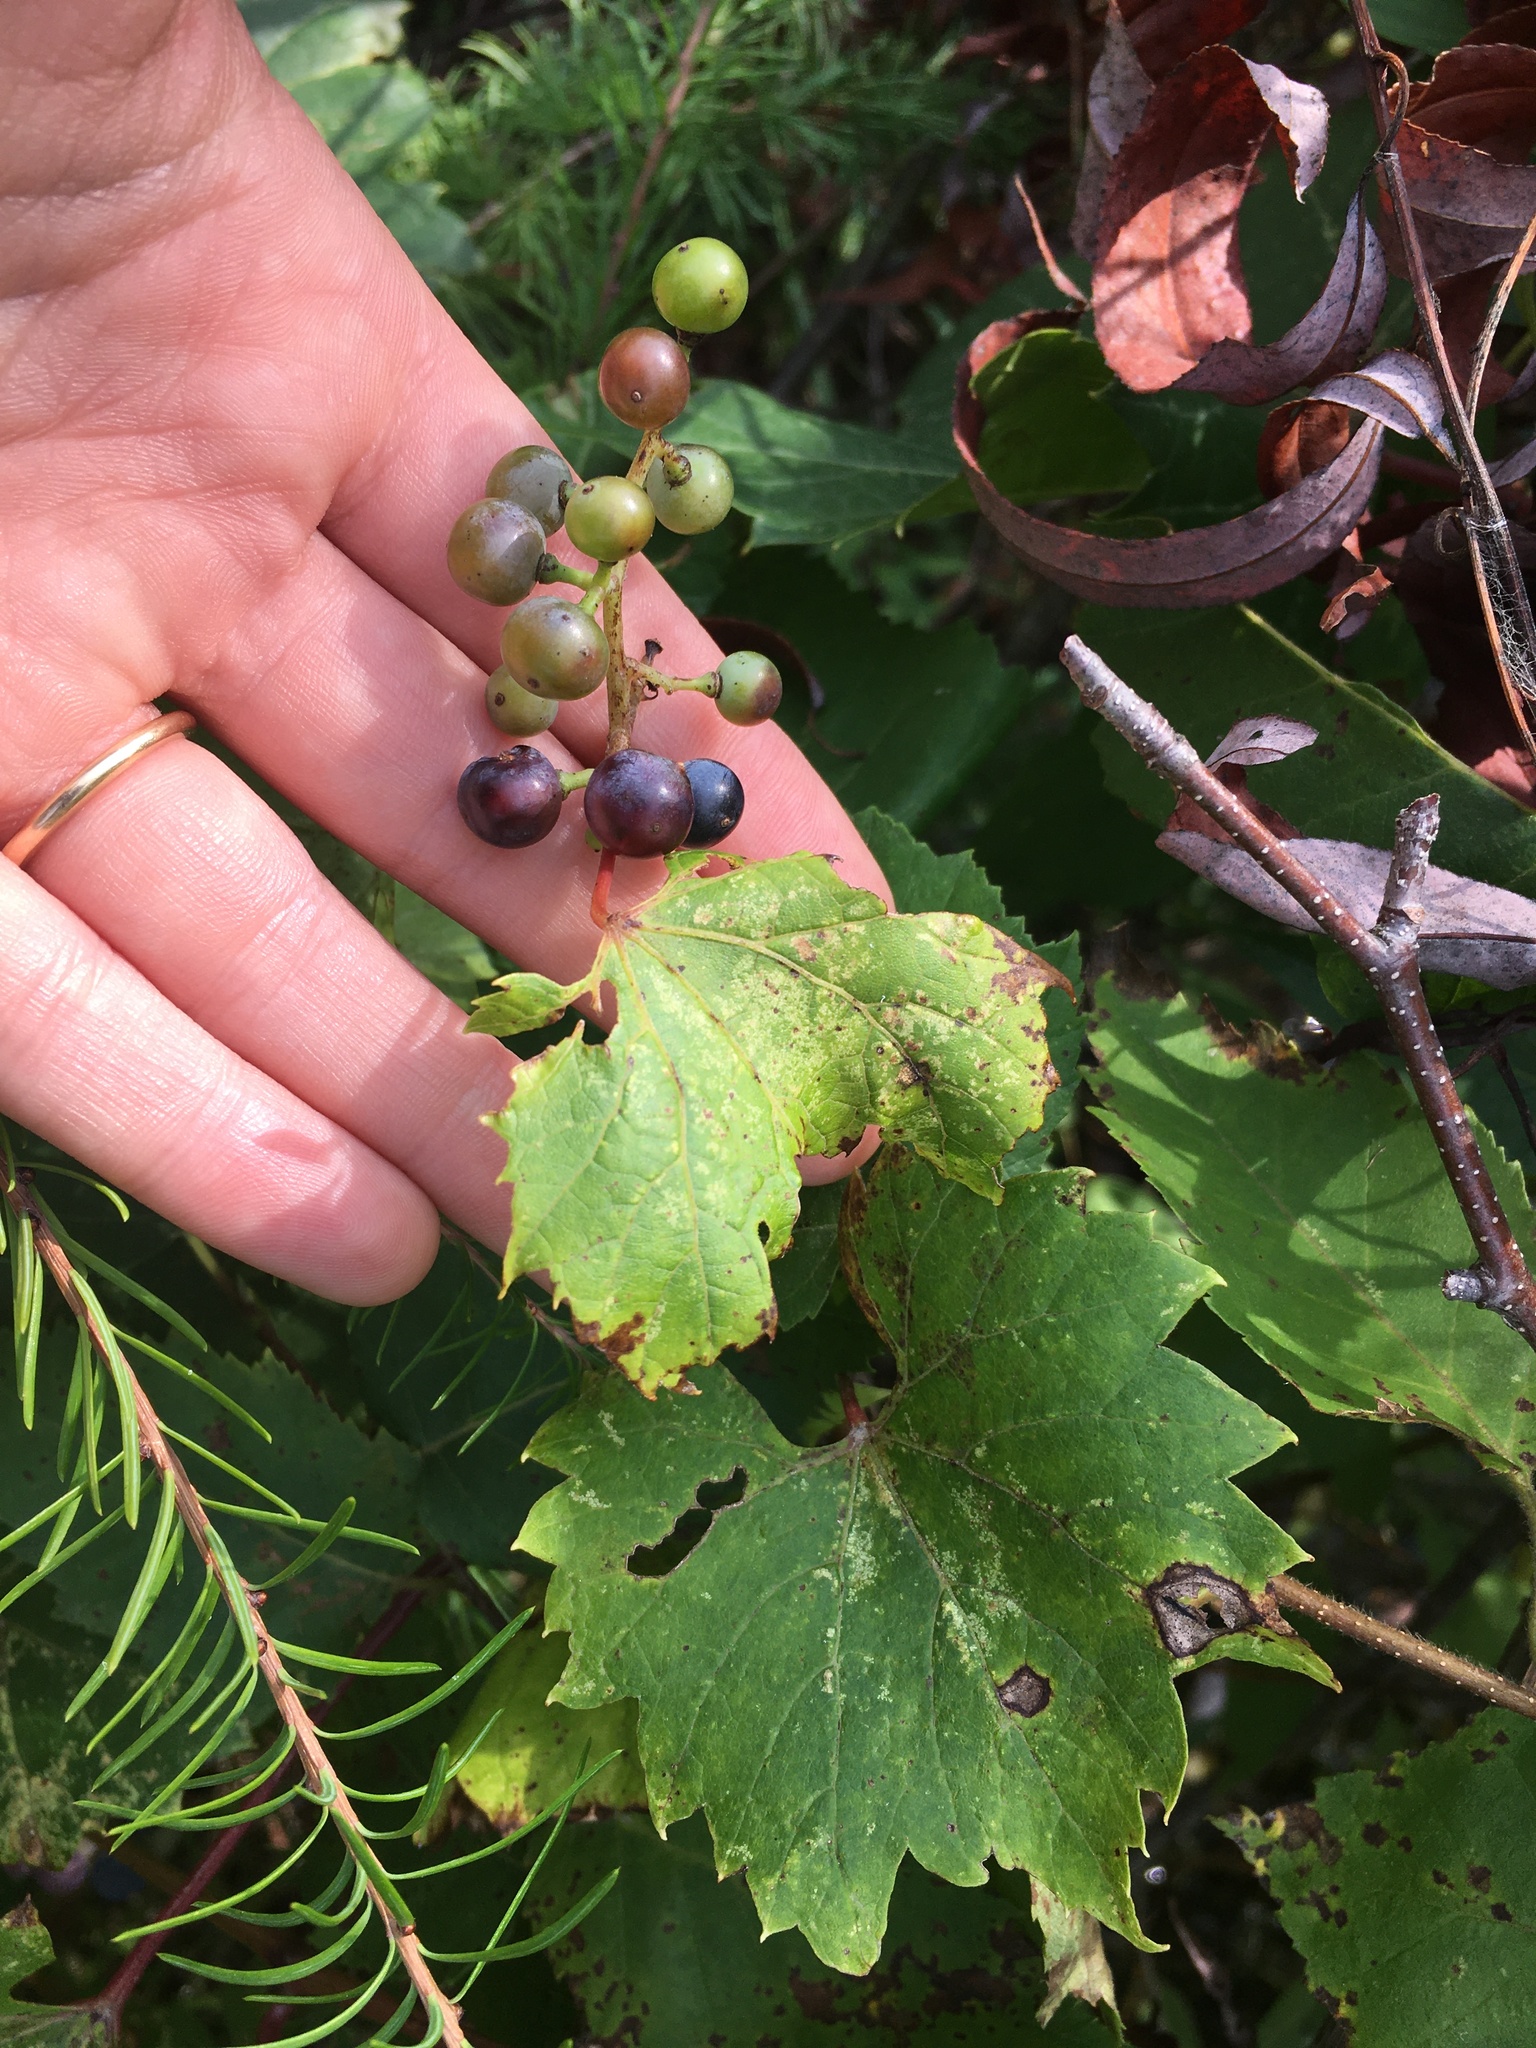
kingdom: Plantae
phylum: Tracheophyta
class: Magnoliopsida
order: Vitales
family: Vitaceae
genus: Vitis
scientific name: Vitis riparia
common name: Frost grape
